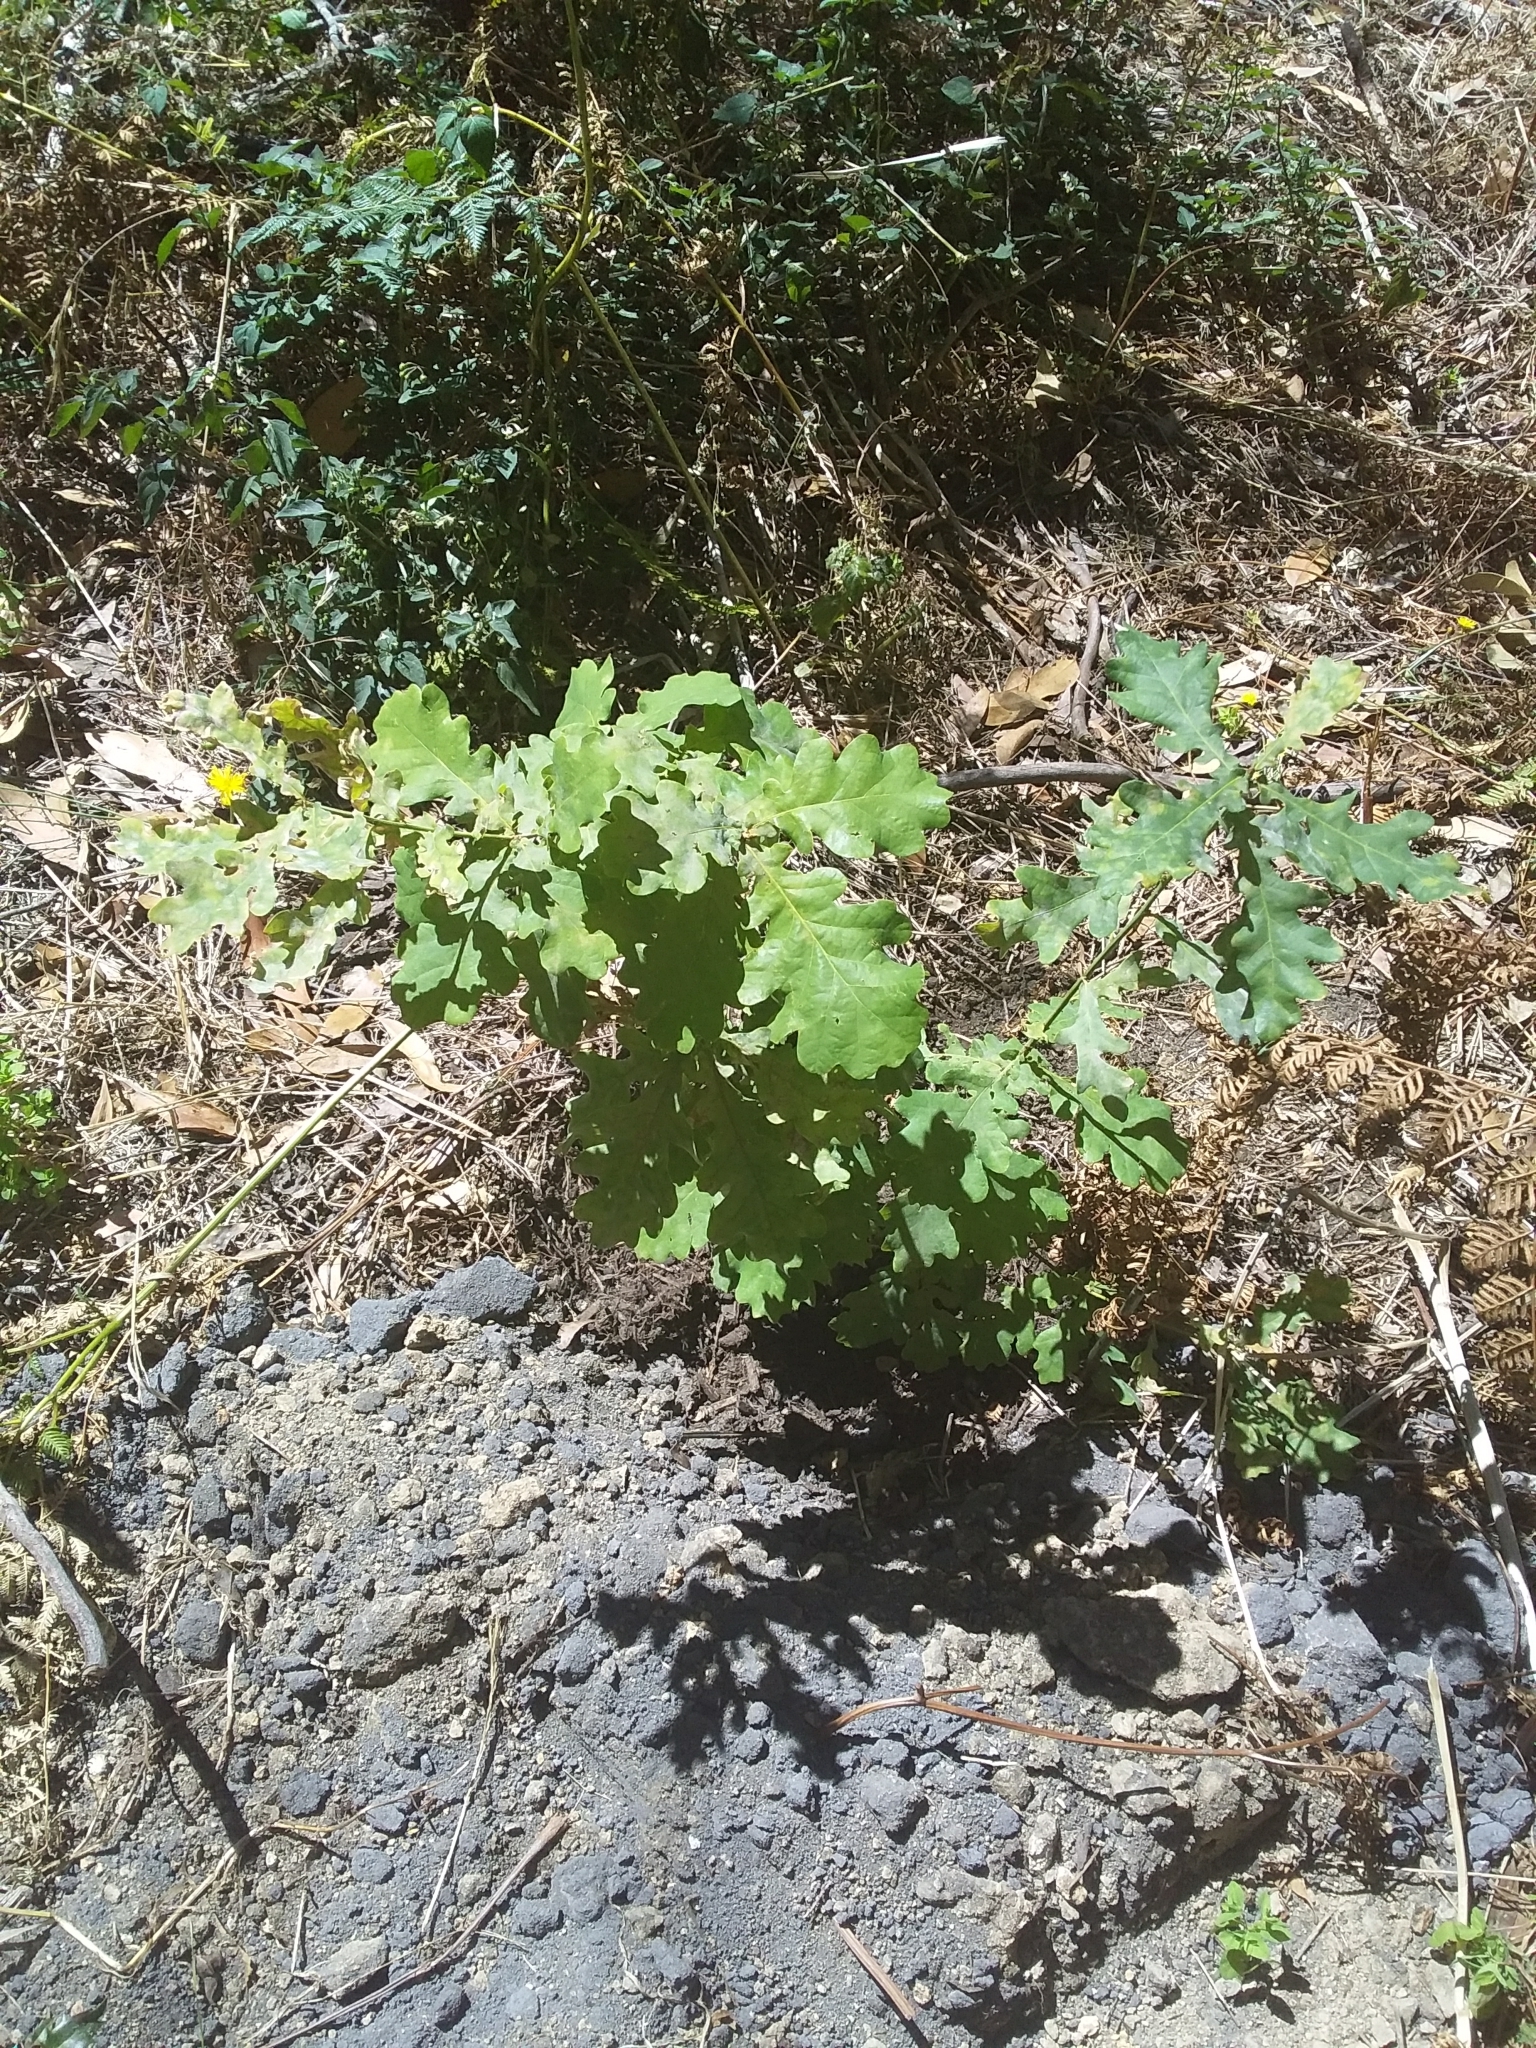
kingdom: Plantae
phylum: Tracheophyta
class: Magnoliopsida
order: Fagales
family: Fagaceae
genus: Quercus
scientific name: Quercus robur
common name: Pedunculate oak
